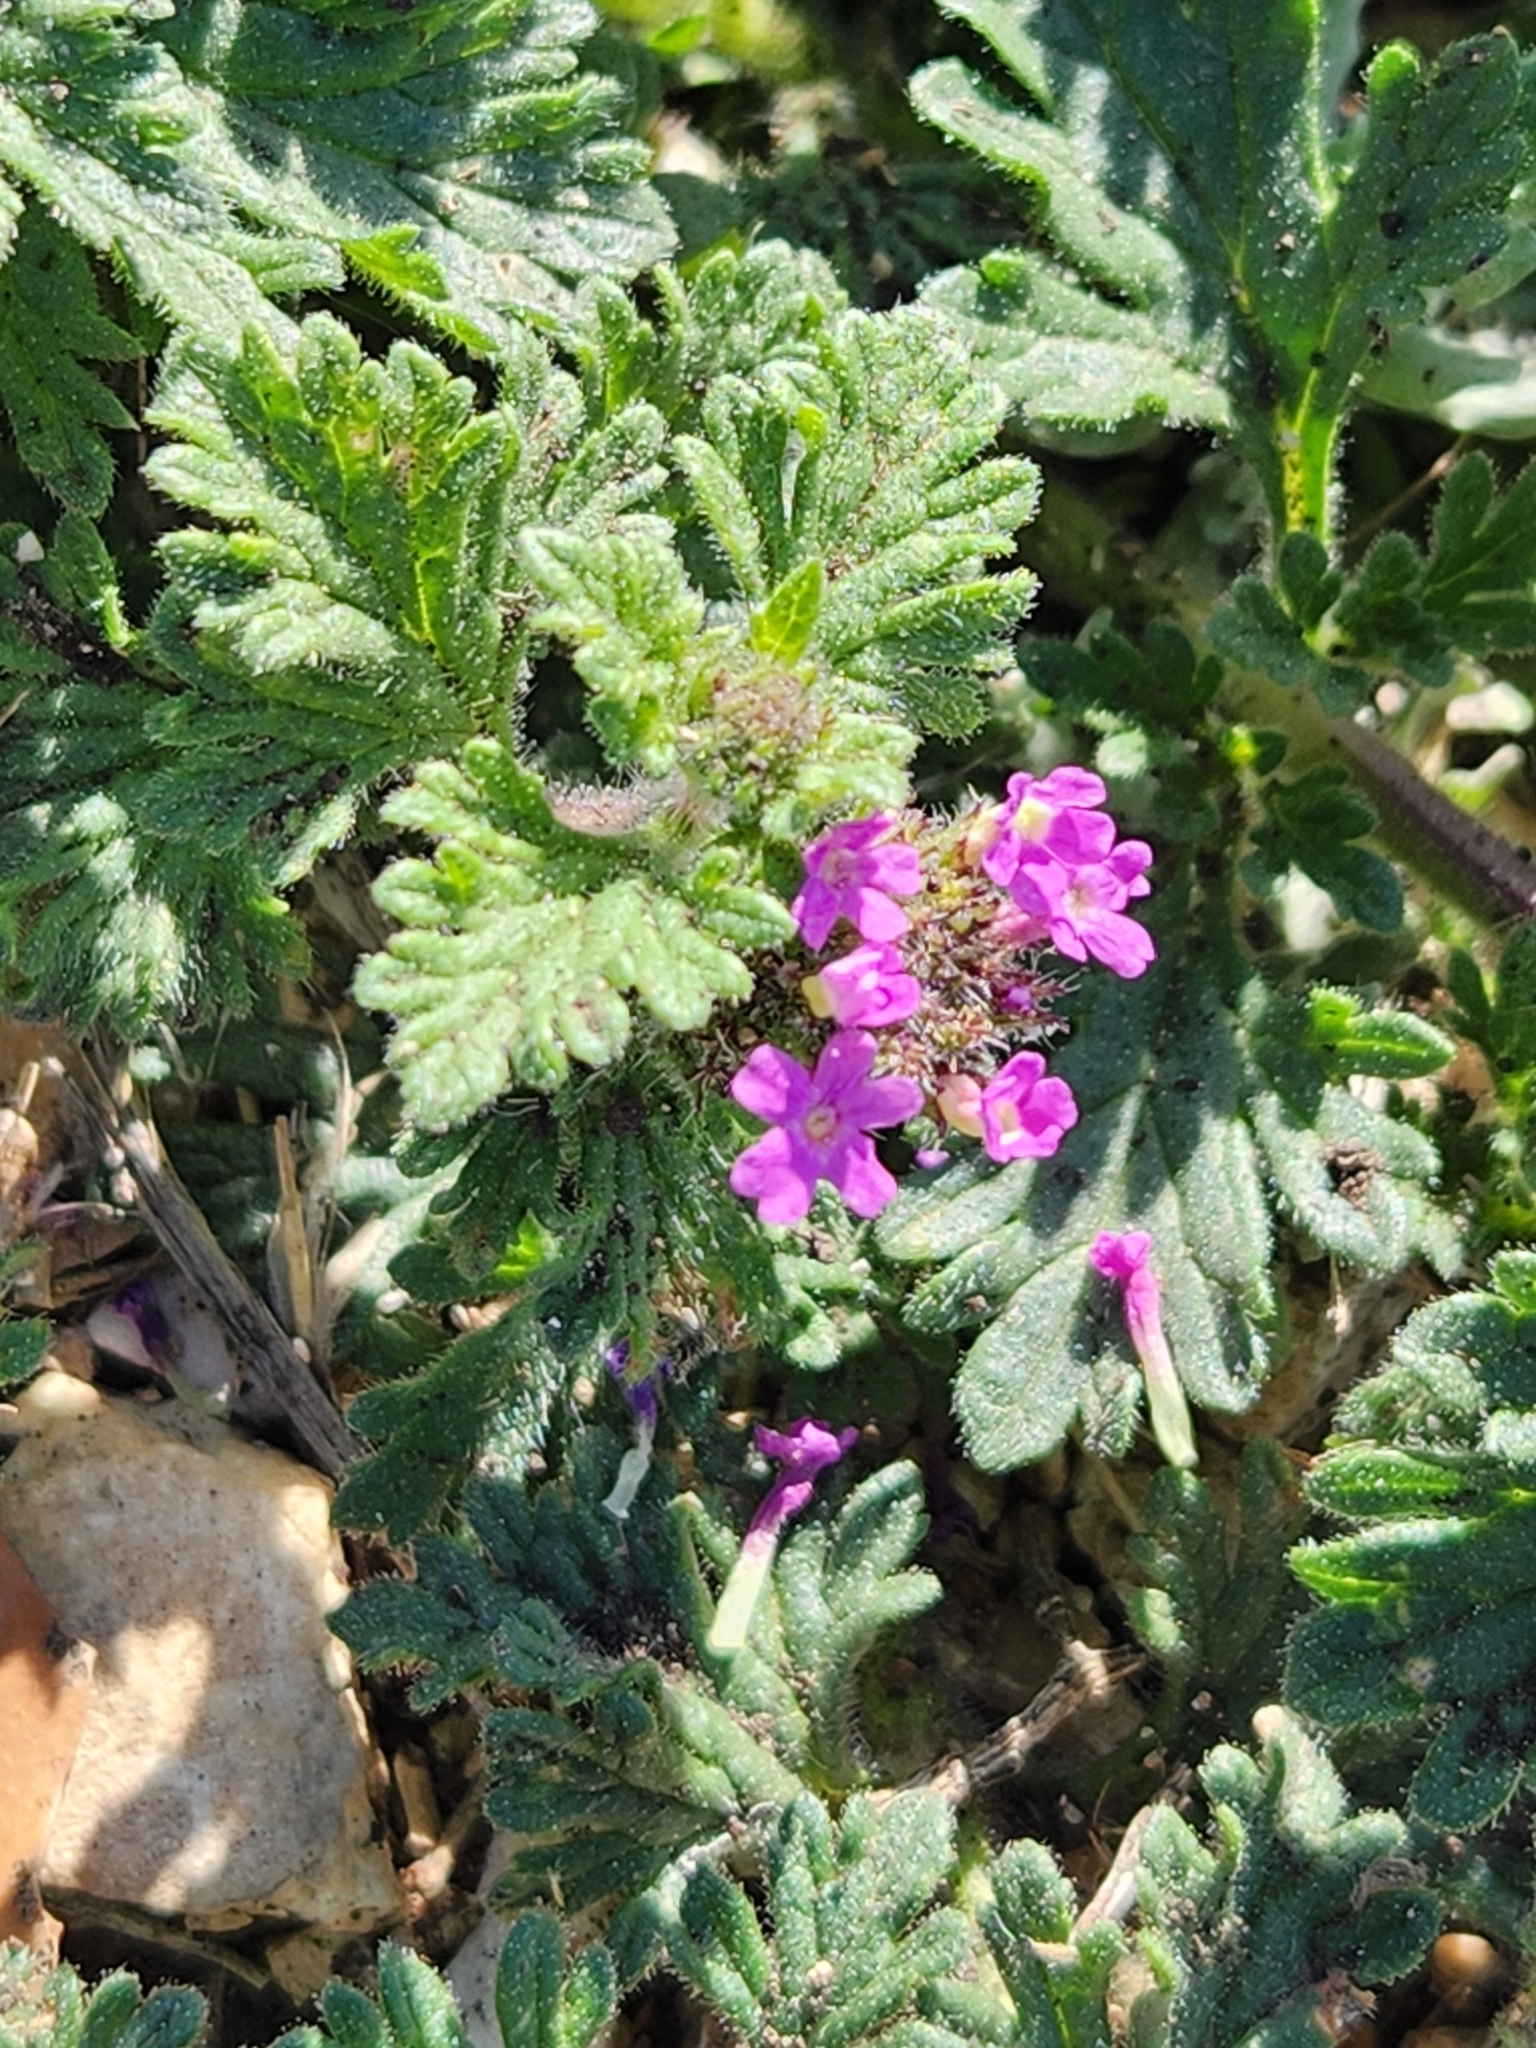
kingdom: Plantae
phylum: Tracheophyta
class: Magnoliopsida
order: Lamiales
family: Verbenaceae
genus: Verbena
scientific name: Verbena pumila
